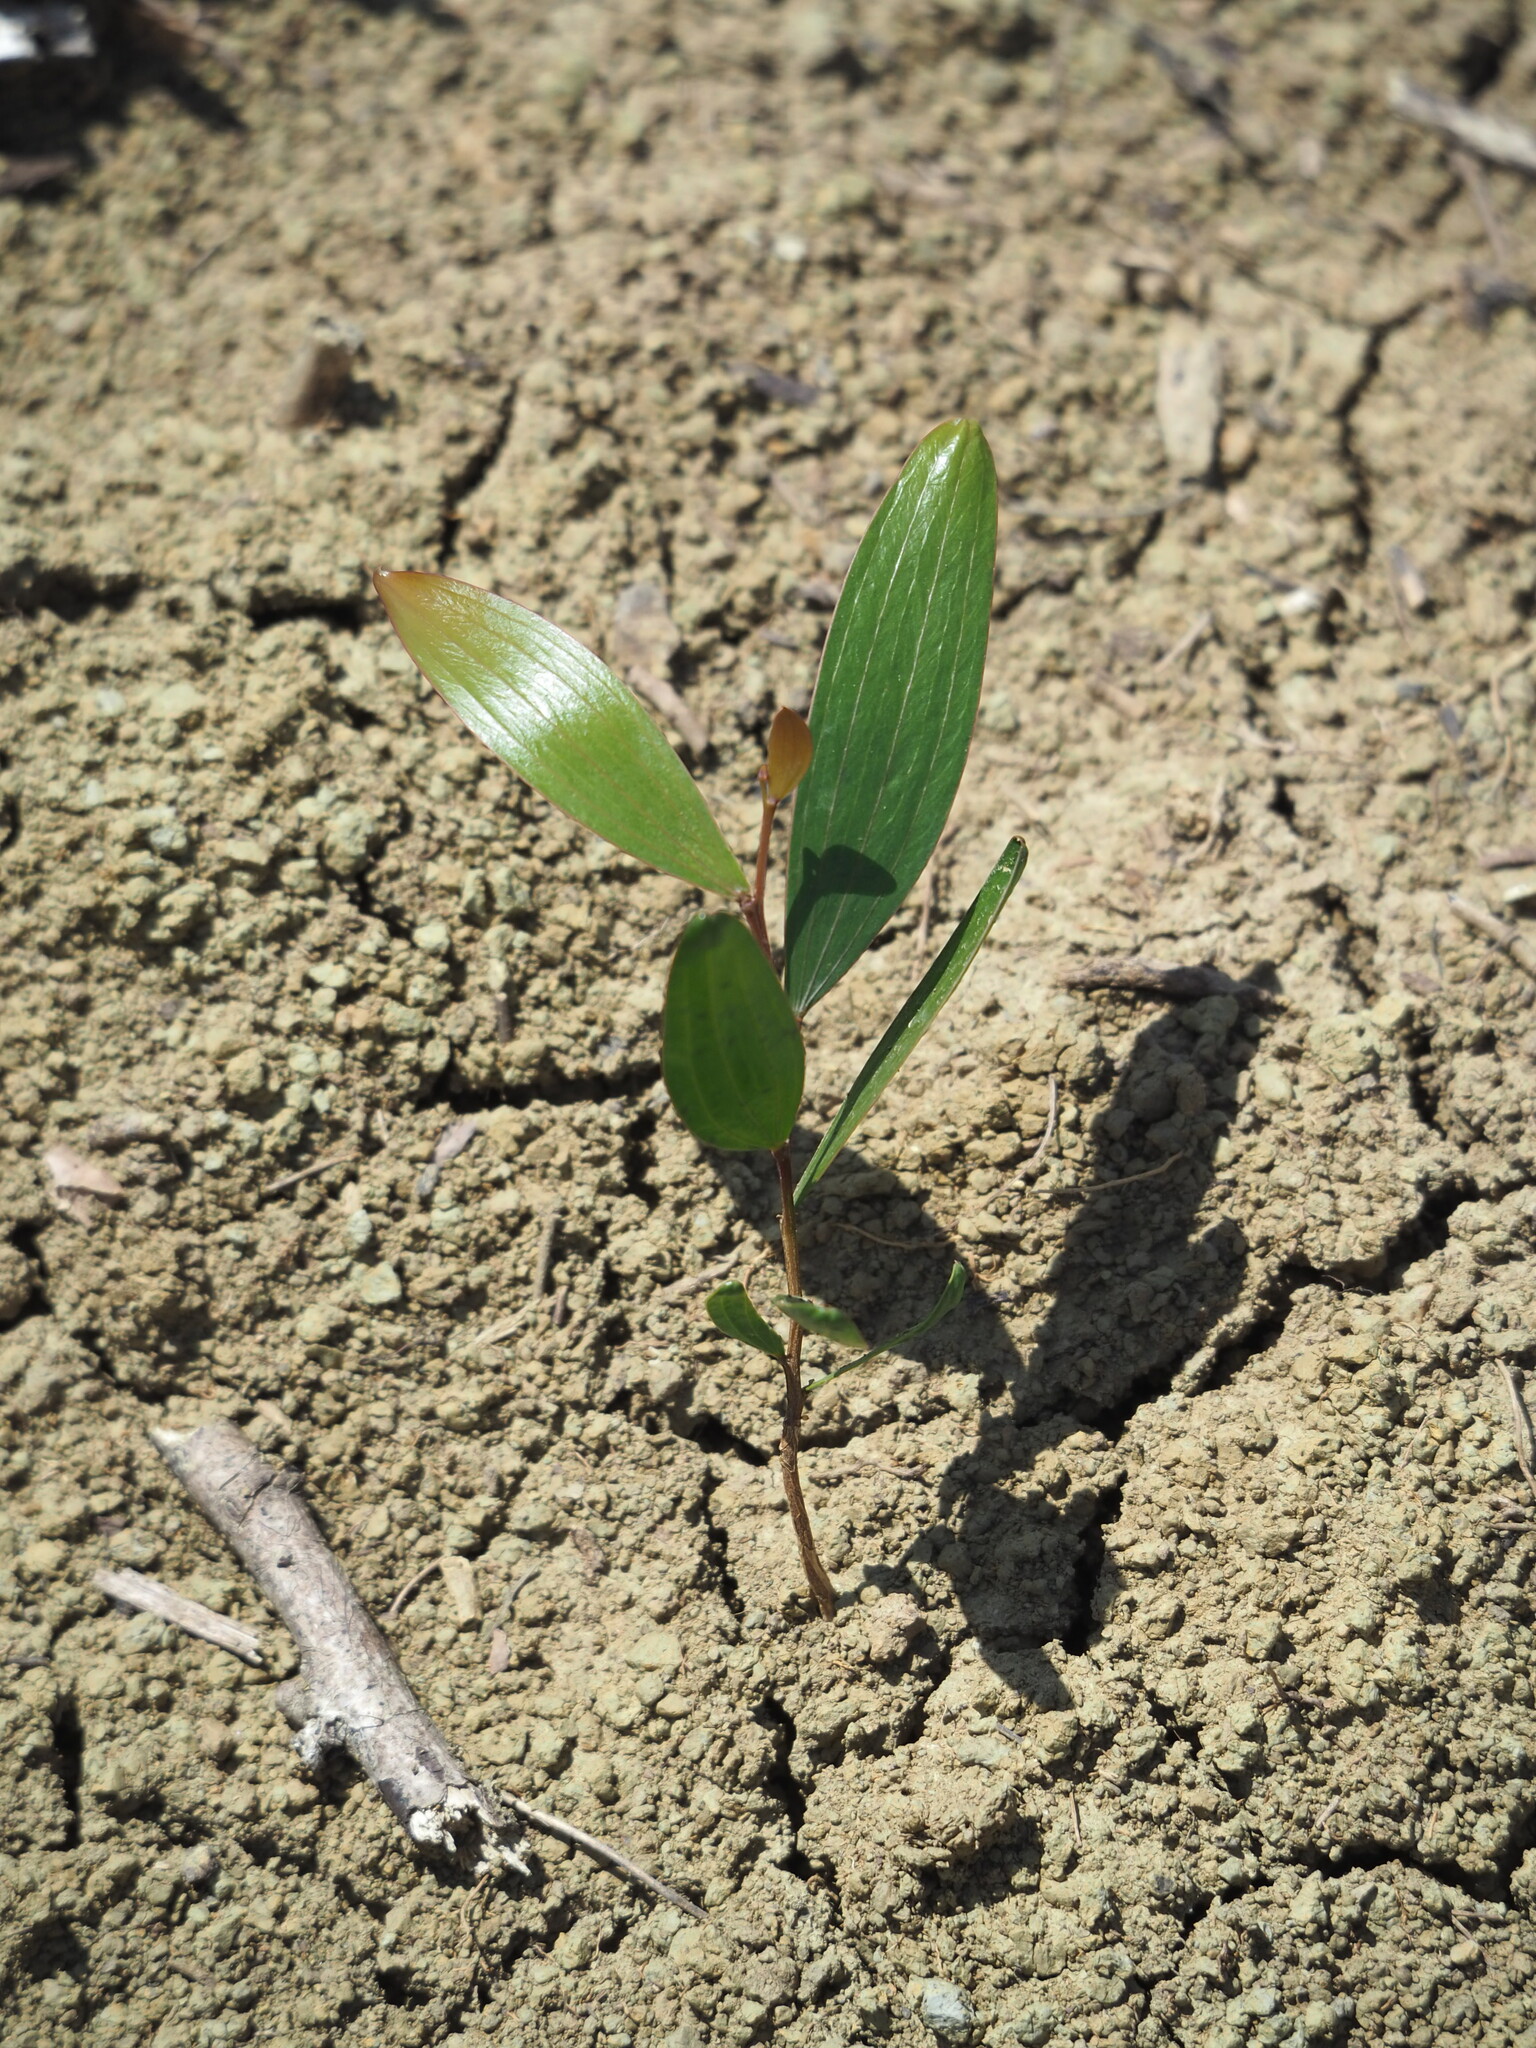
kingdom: Plantae
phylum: Tracheophyta
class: Magnoliopsida
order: Fabales
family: Fabaceae
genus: Acacia
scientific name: Acacia confusa
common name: Formosan koa
